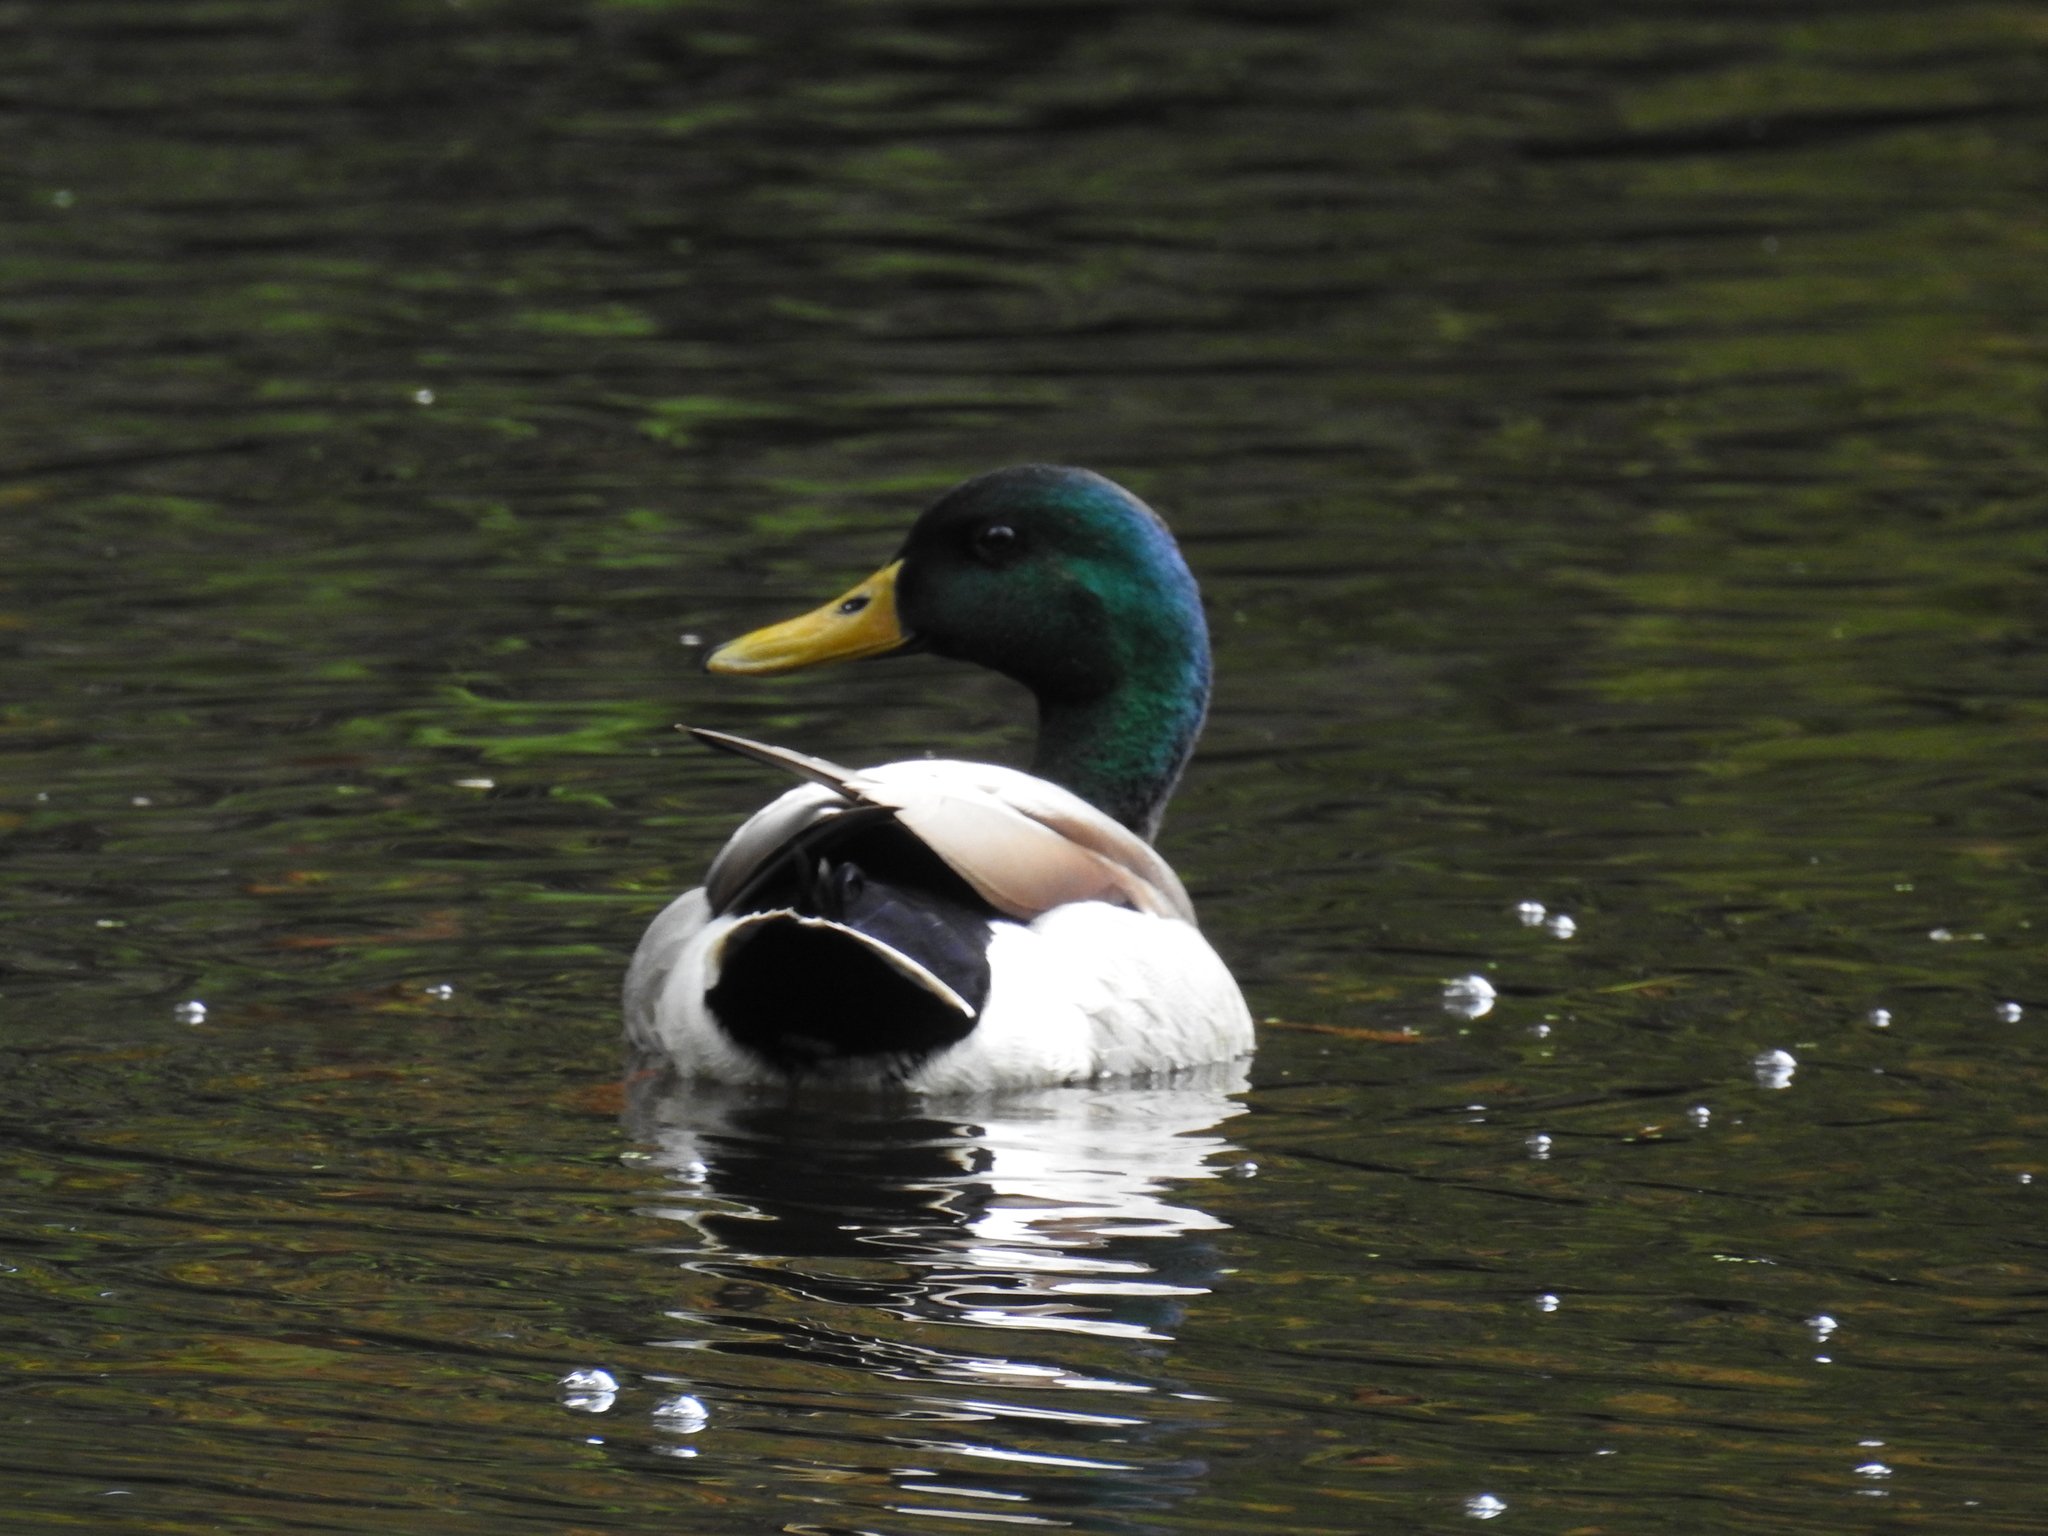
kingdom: Animalia
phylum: Chordata
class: Aves
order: Anseriformes
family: Anatidae
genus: Anas
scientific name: Anas platyrhynchos
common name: Mallard
